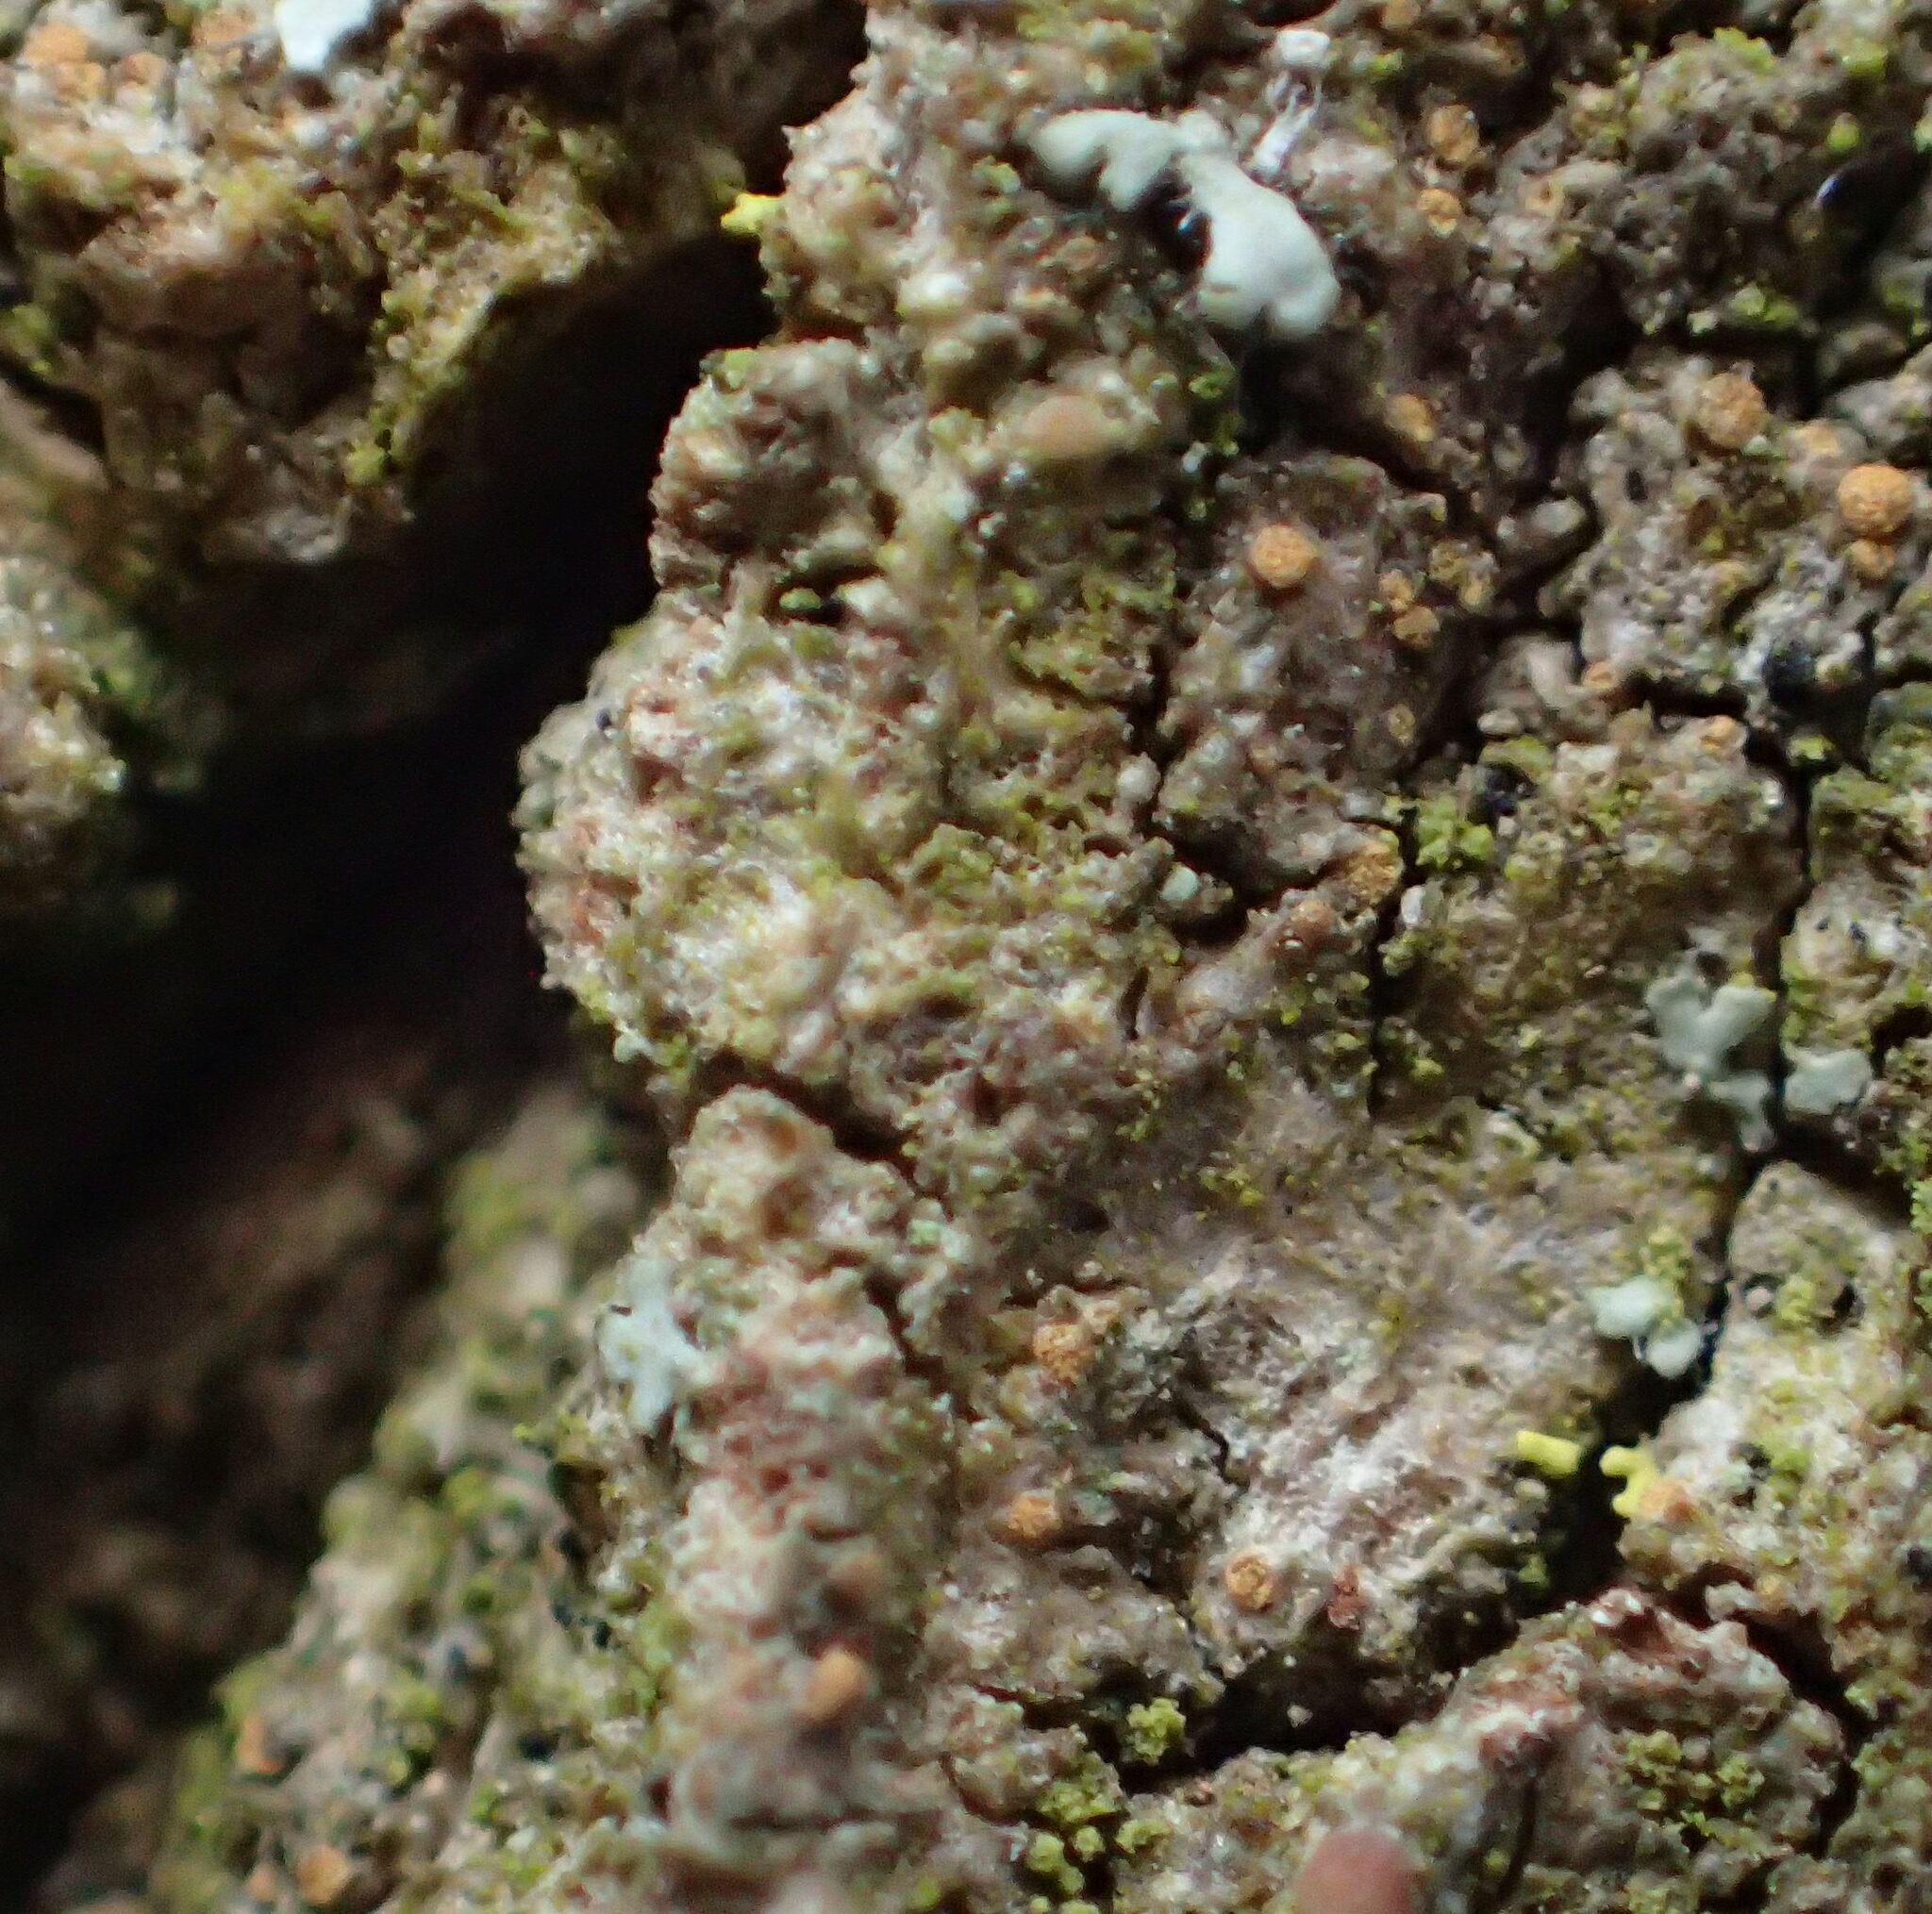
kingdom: Fungi
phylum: Ascomycota
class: Lecanoromycetes
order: Lecanorales
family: Biatorellaceae
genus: Piccolia
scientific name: Piccolia ochrophora
